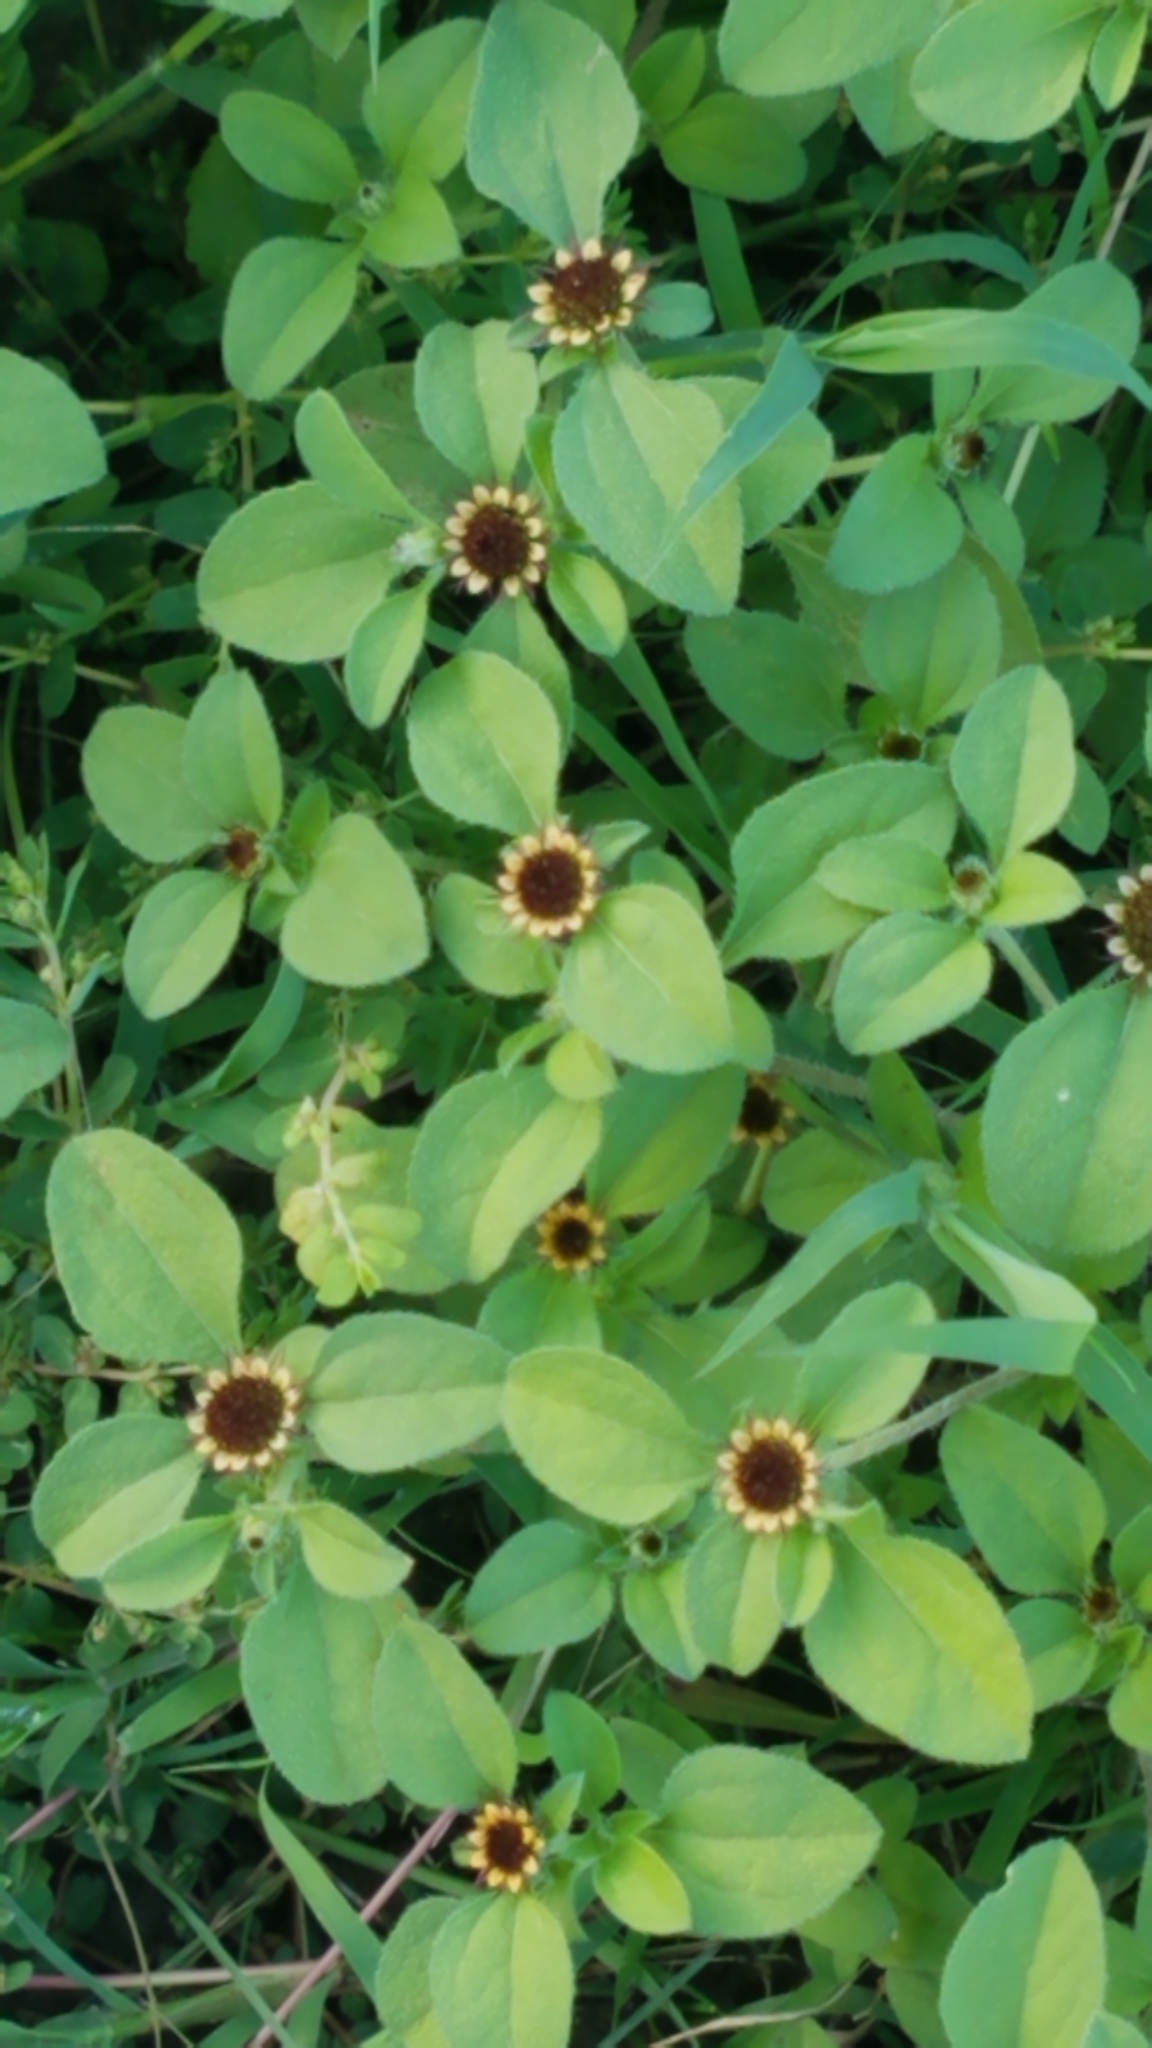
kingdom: Plantae
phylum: Tracheophyta
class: Magnoliopsida
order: Asterales
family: Asteraceae
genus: Sanvitalia
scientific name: Sanvitalia ocymoides
